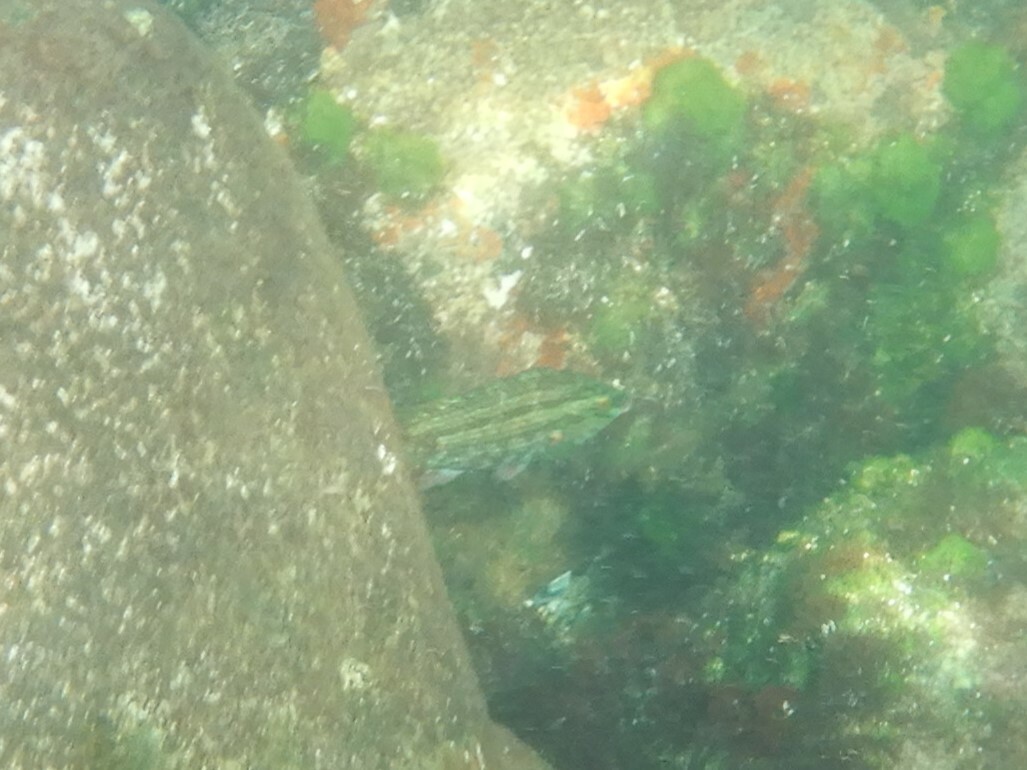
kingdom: Animalia
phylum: Chordata
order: Perciformes
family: Labridae
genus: Symphodus
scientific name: Symphodus roissali
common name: Five-spotted wrasse
